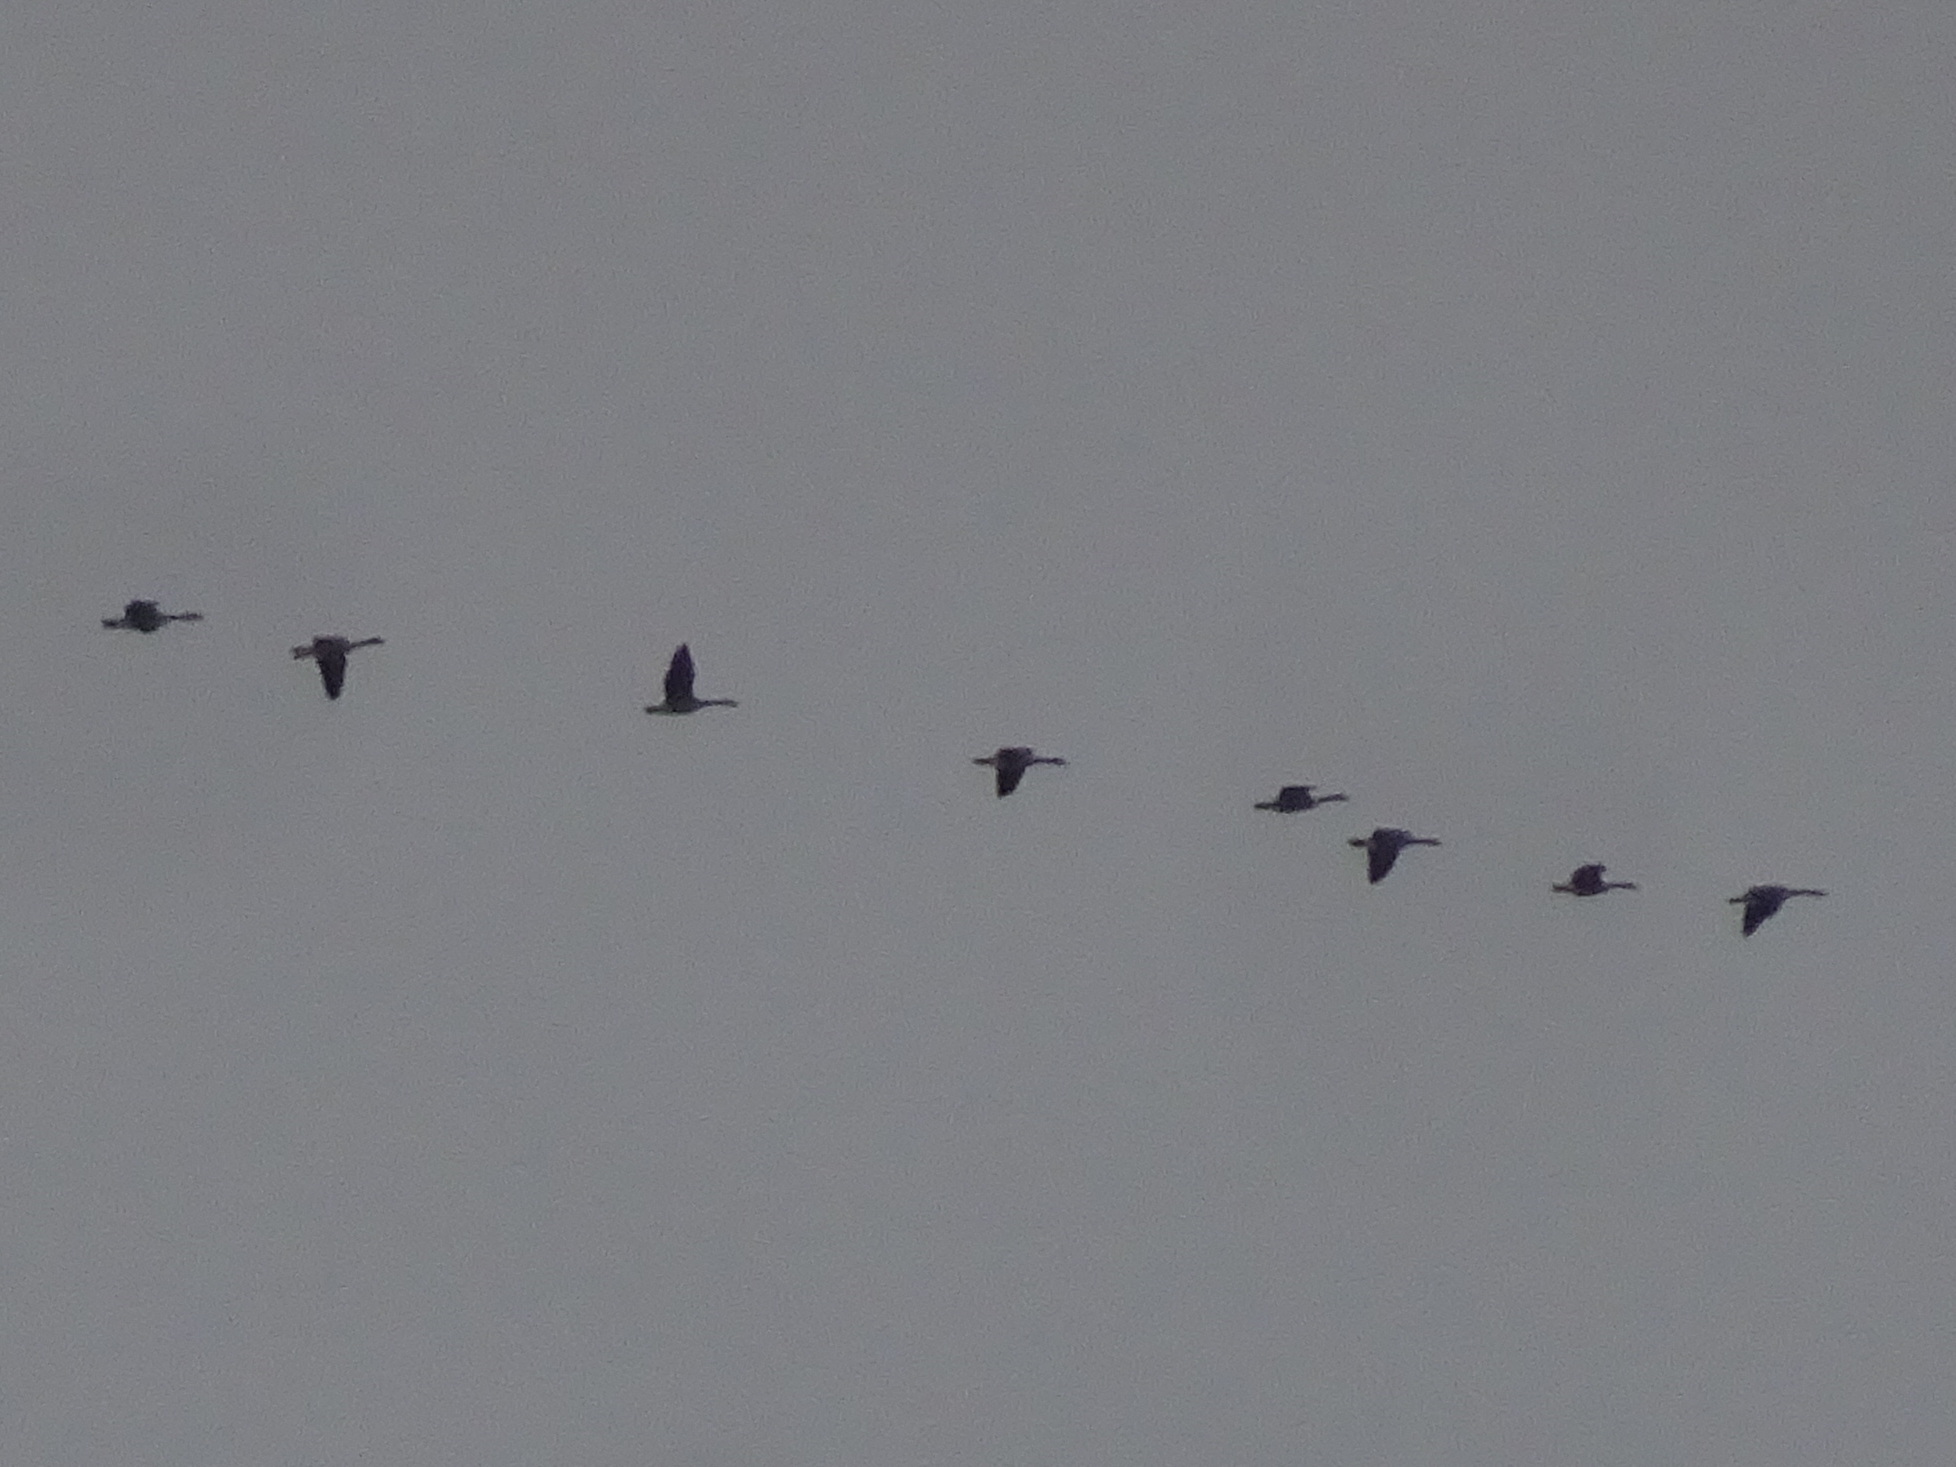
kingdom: Animalia
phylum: Chordata
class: Aves
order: Anseriformes
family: Anatidae
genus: Branta
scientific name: Branta canadensis
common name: Canada goose
